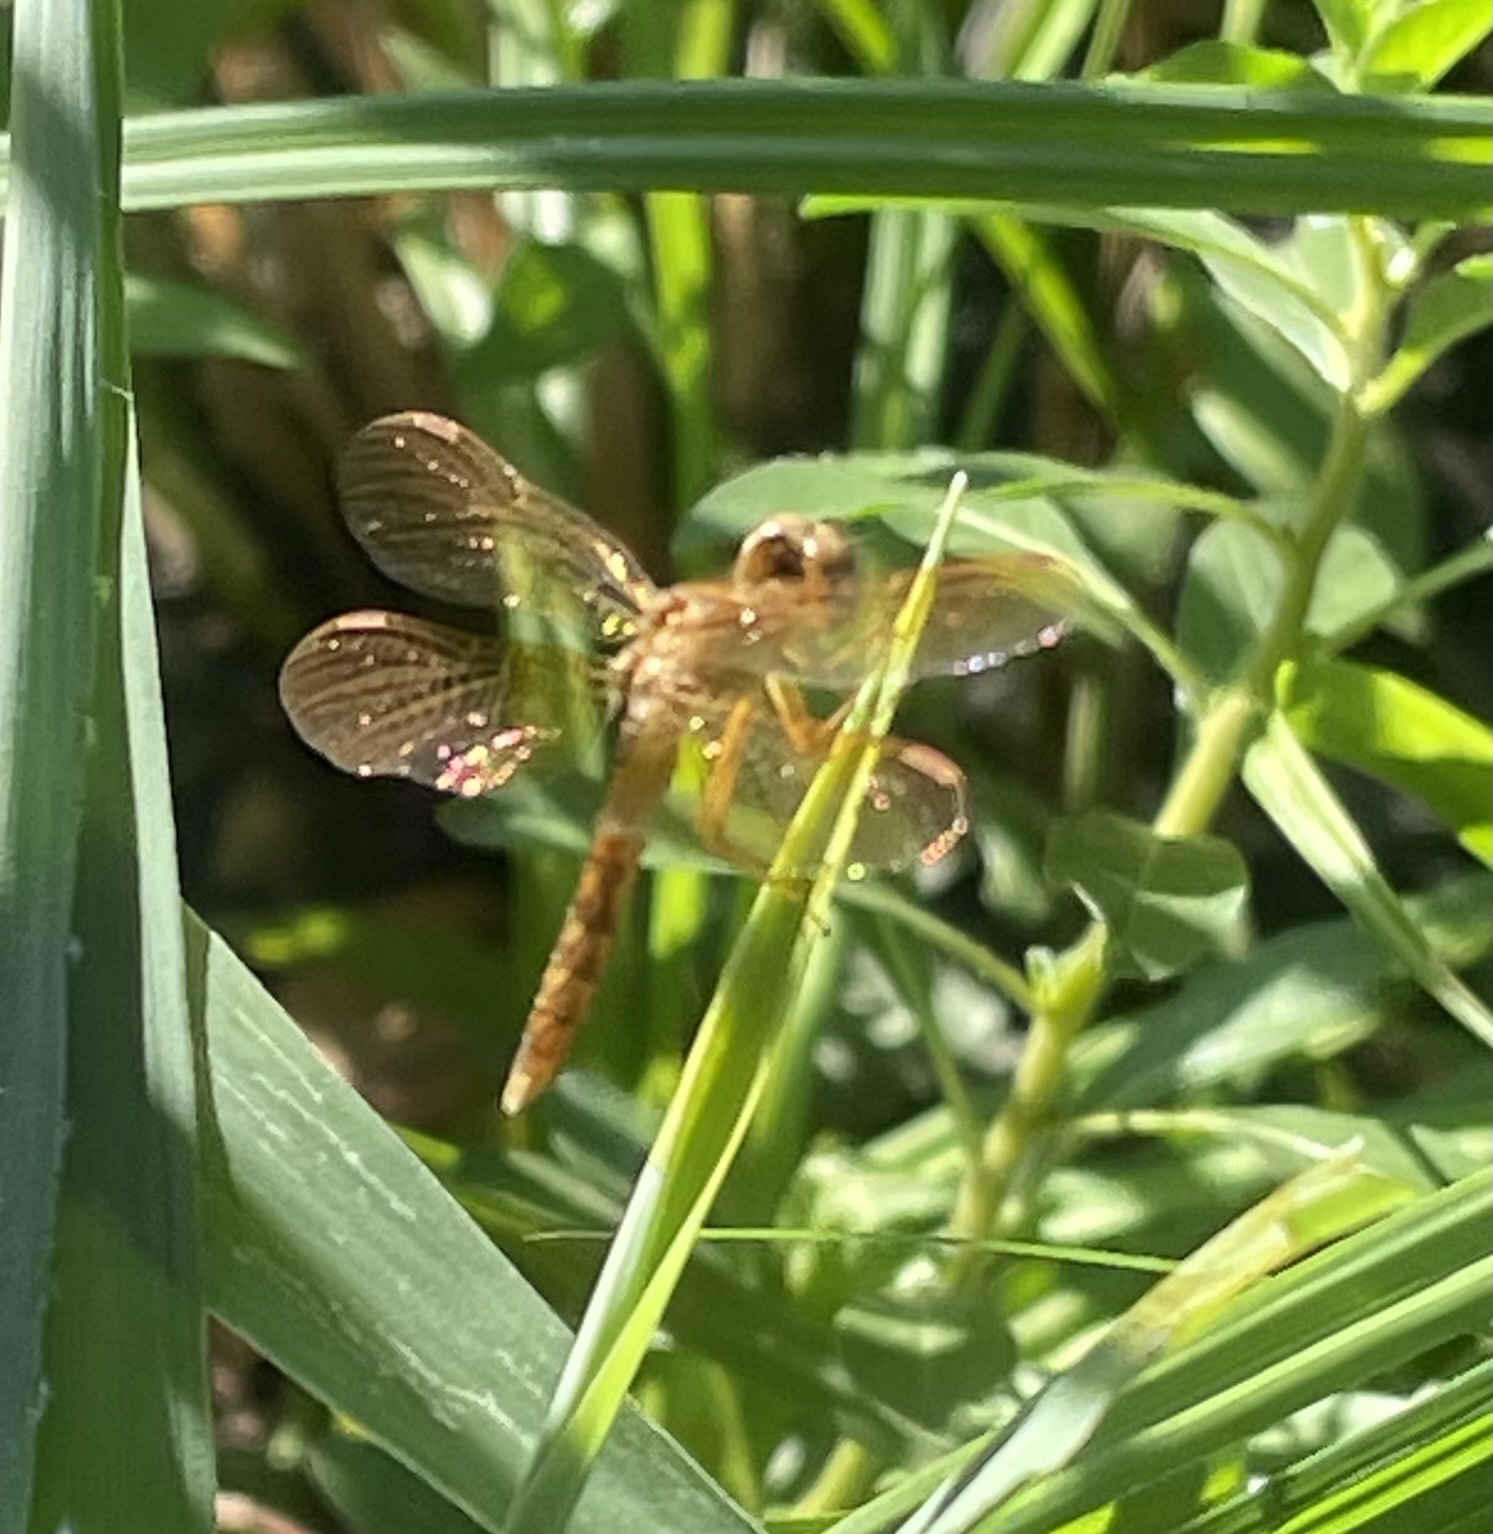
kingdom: Animalia
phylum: Arthropoda
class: Insecta
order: Odonata
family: Libellulidae
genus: Perithemis
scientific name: Perithemis tenera
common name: Eastern amberwing
